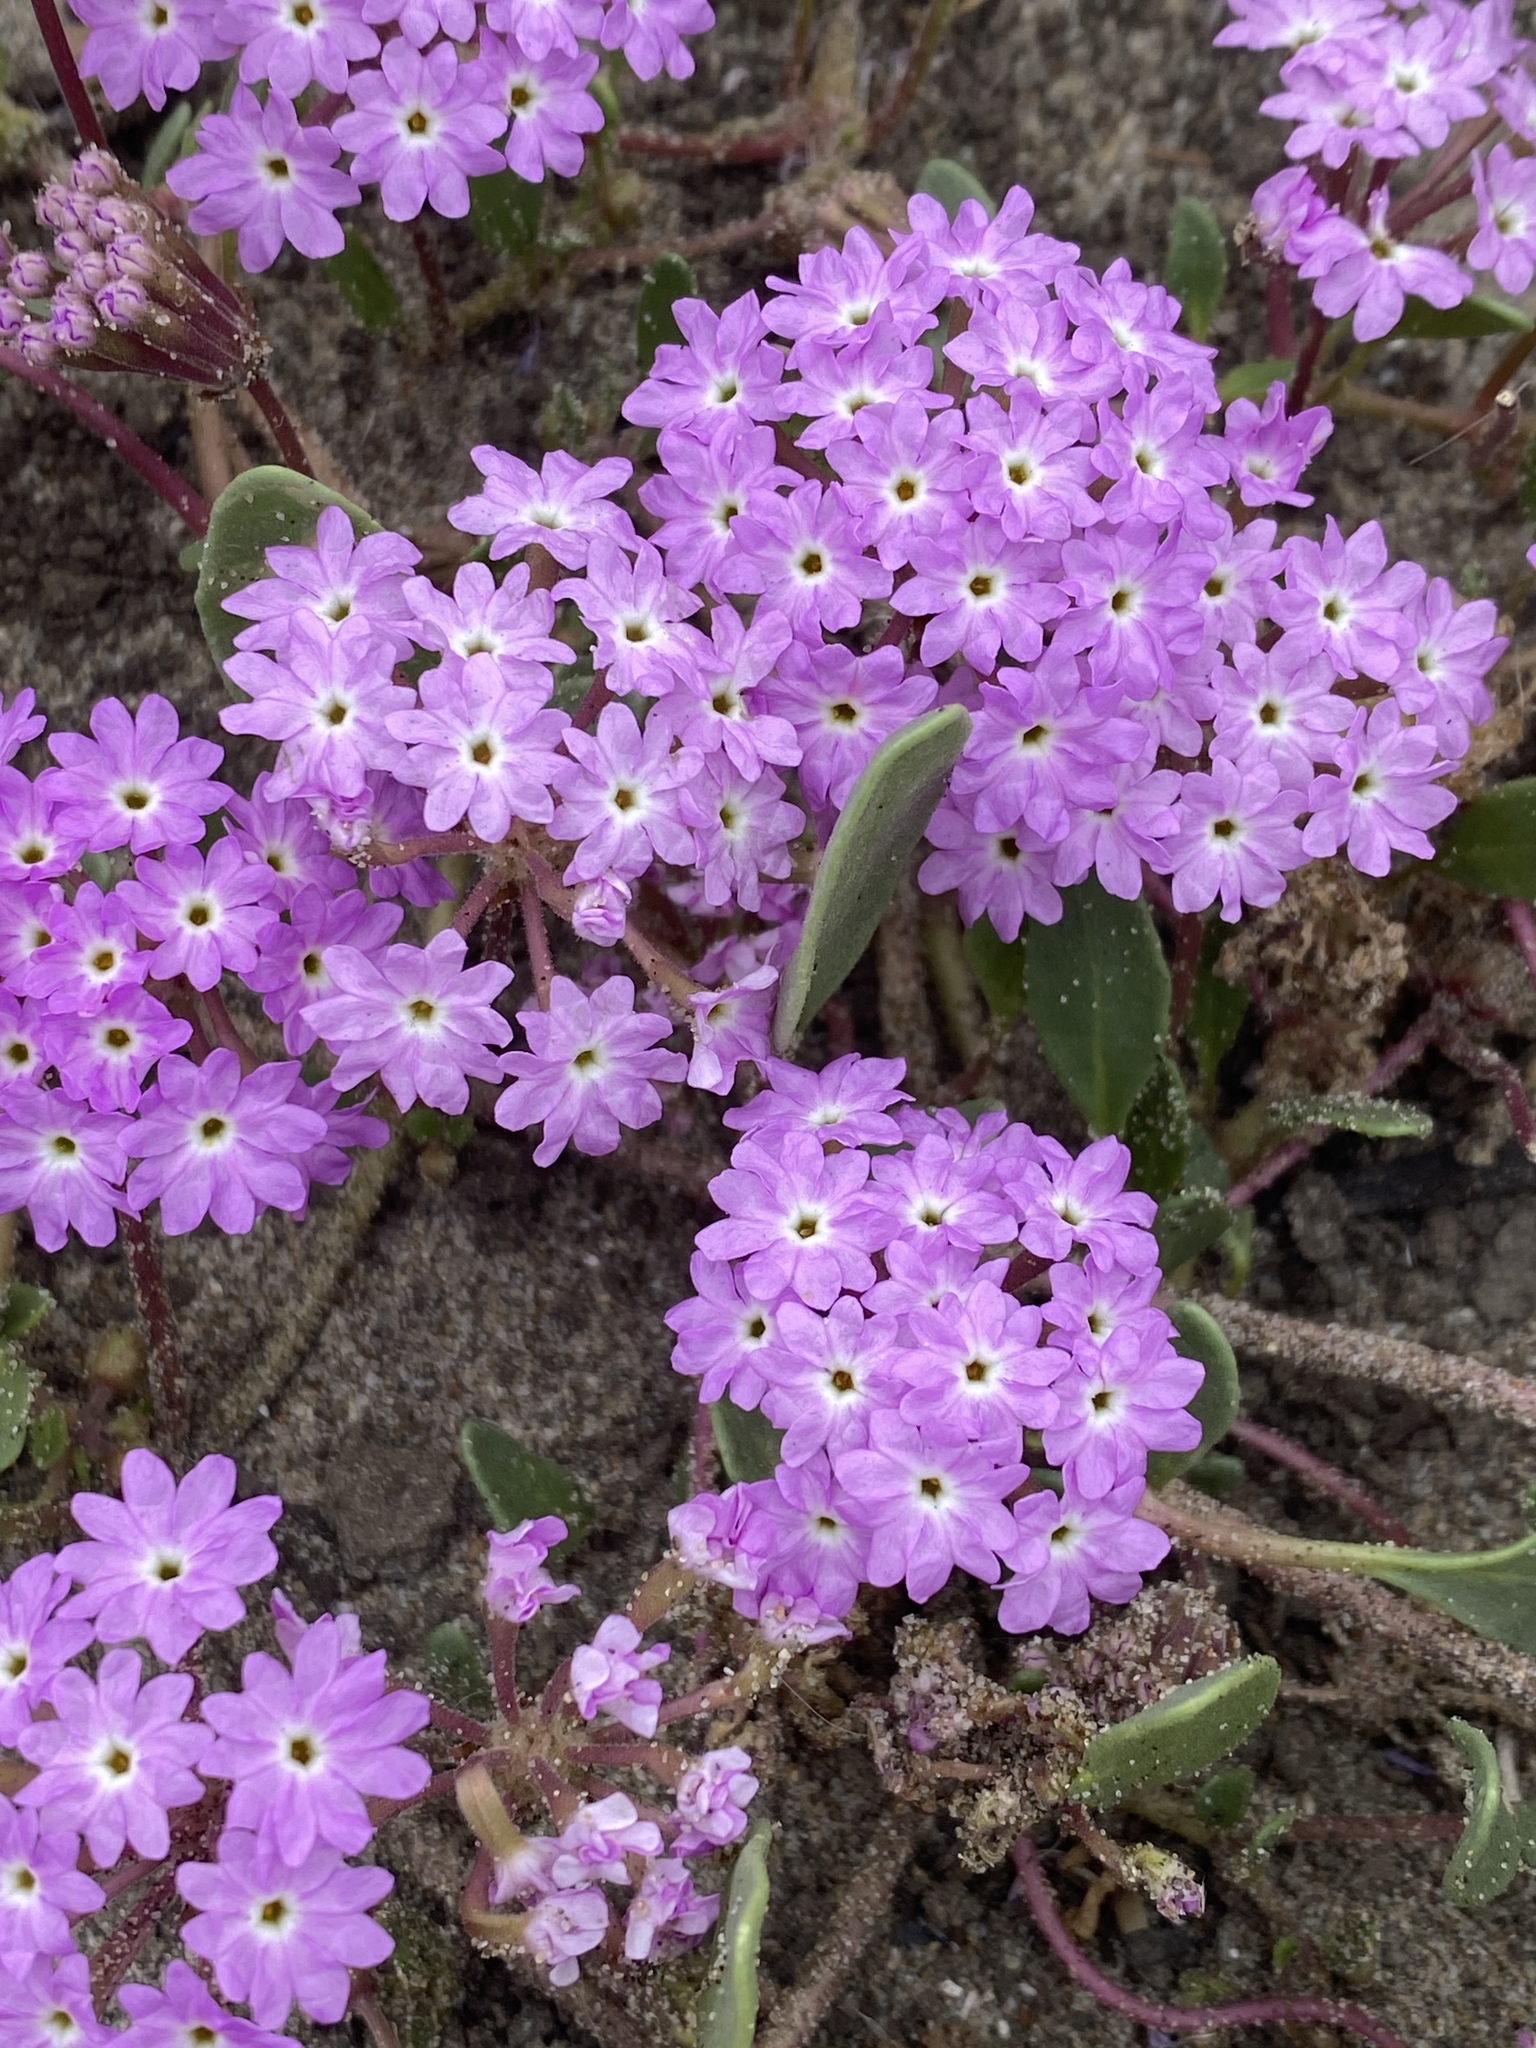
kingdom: Plantae
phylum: Tracheophyta
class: Magnoliopsida
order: Caryophyllales
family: Nyctaginaceae
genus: Abronia
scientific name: Abronia umbellata
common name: Sand-verbena
